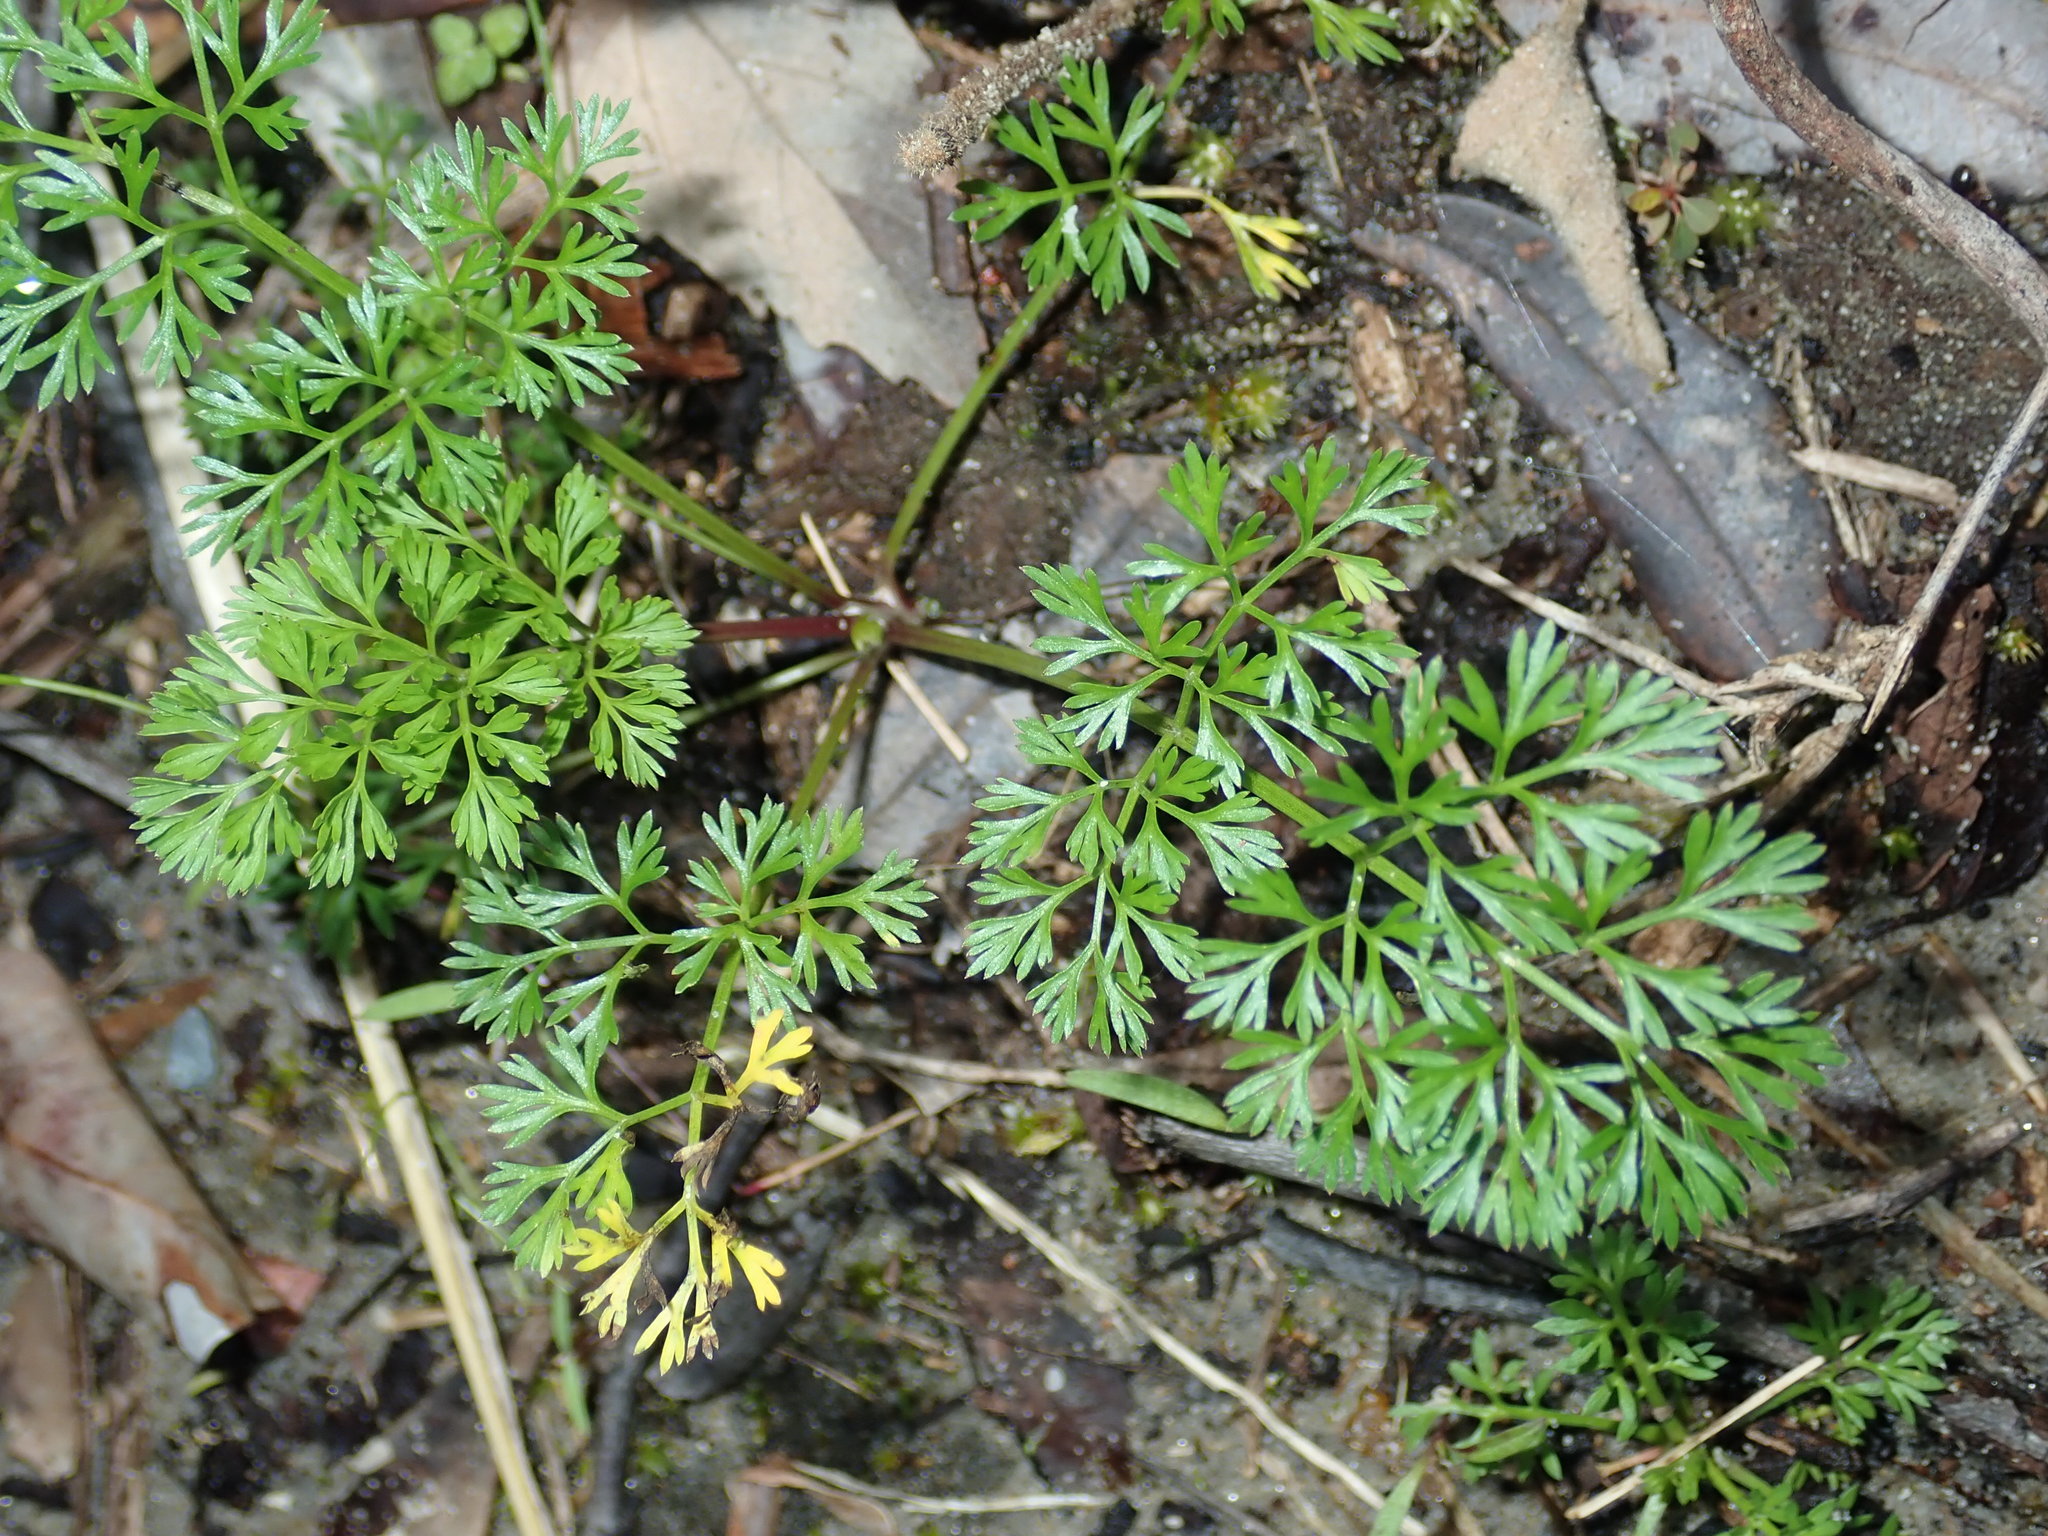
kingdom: Plantae
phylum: Tracheophyta
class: Magnoliopsida
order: Apiales
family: Apiaceae
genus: Cyclospermum
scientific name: Cyclospermum leptophyllum
